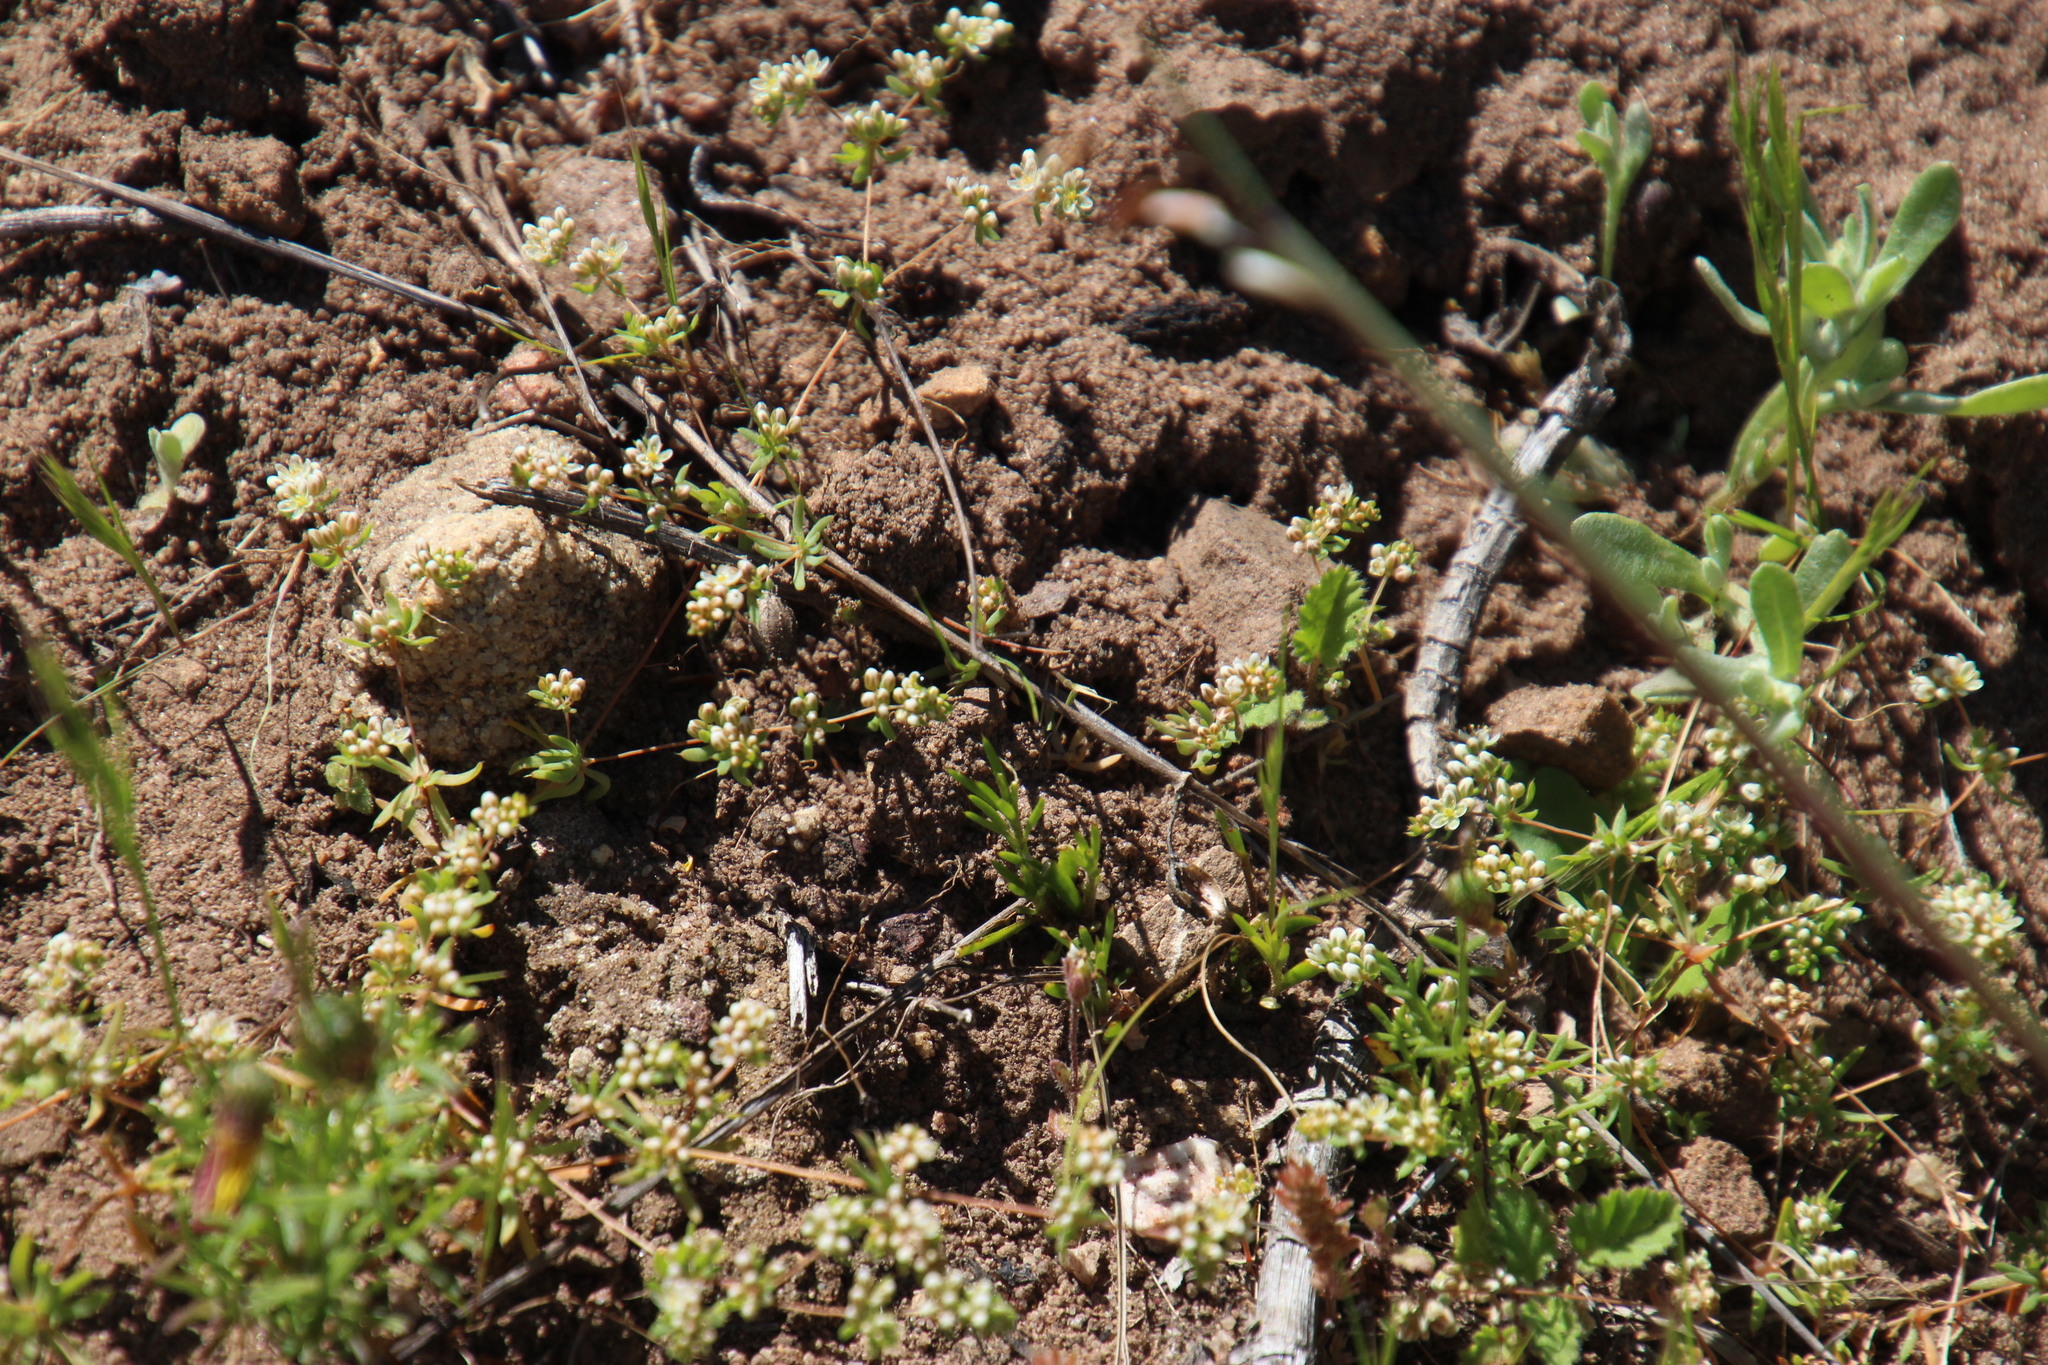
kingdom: Plantae
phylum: Tracheophyta
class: Magnoliopsida
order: Caryophyllales
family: Molluginaceae
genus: Adenogramma
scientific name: Adenogramma glomerata
